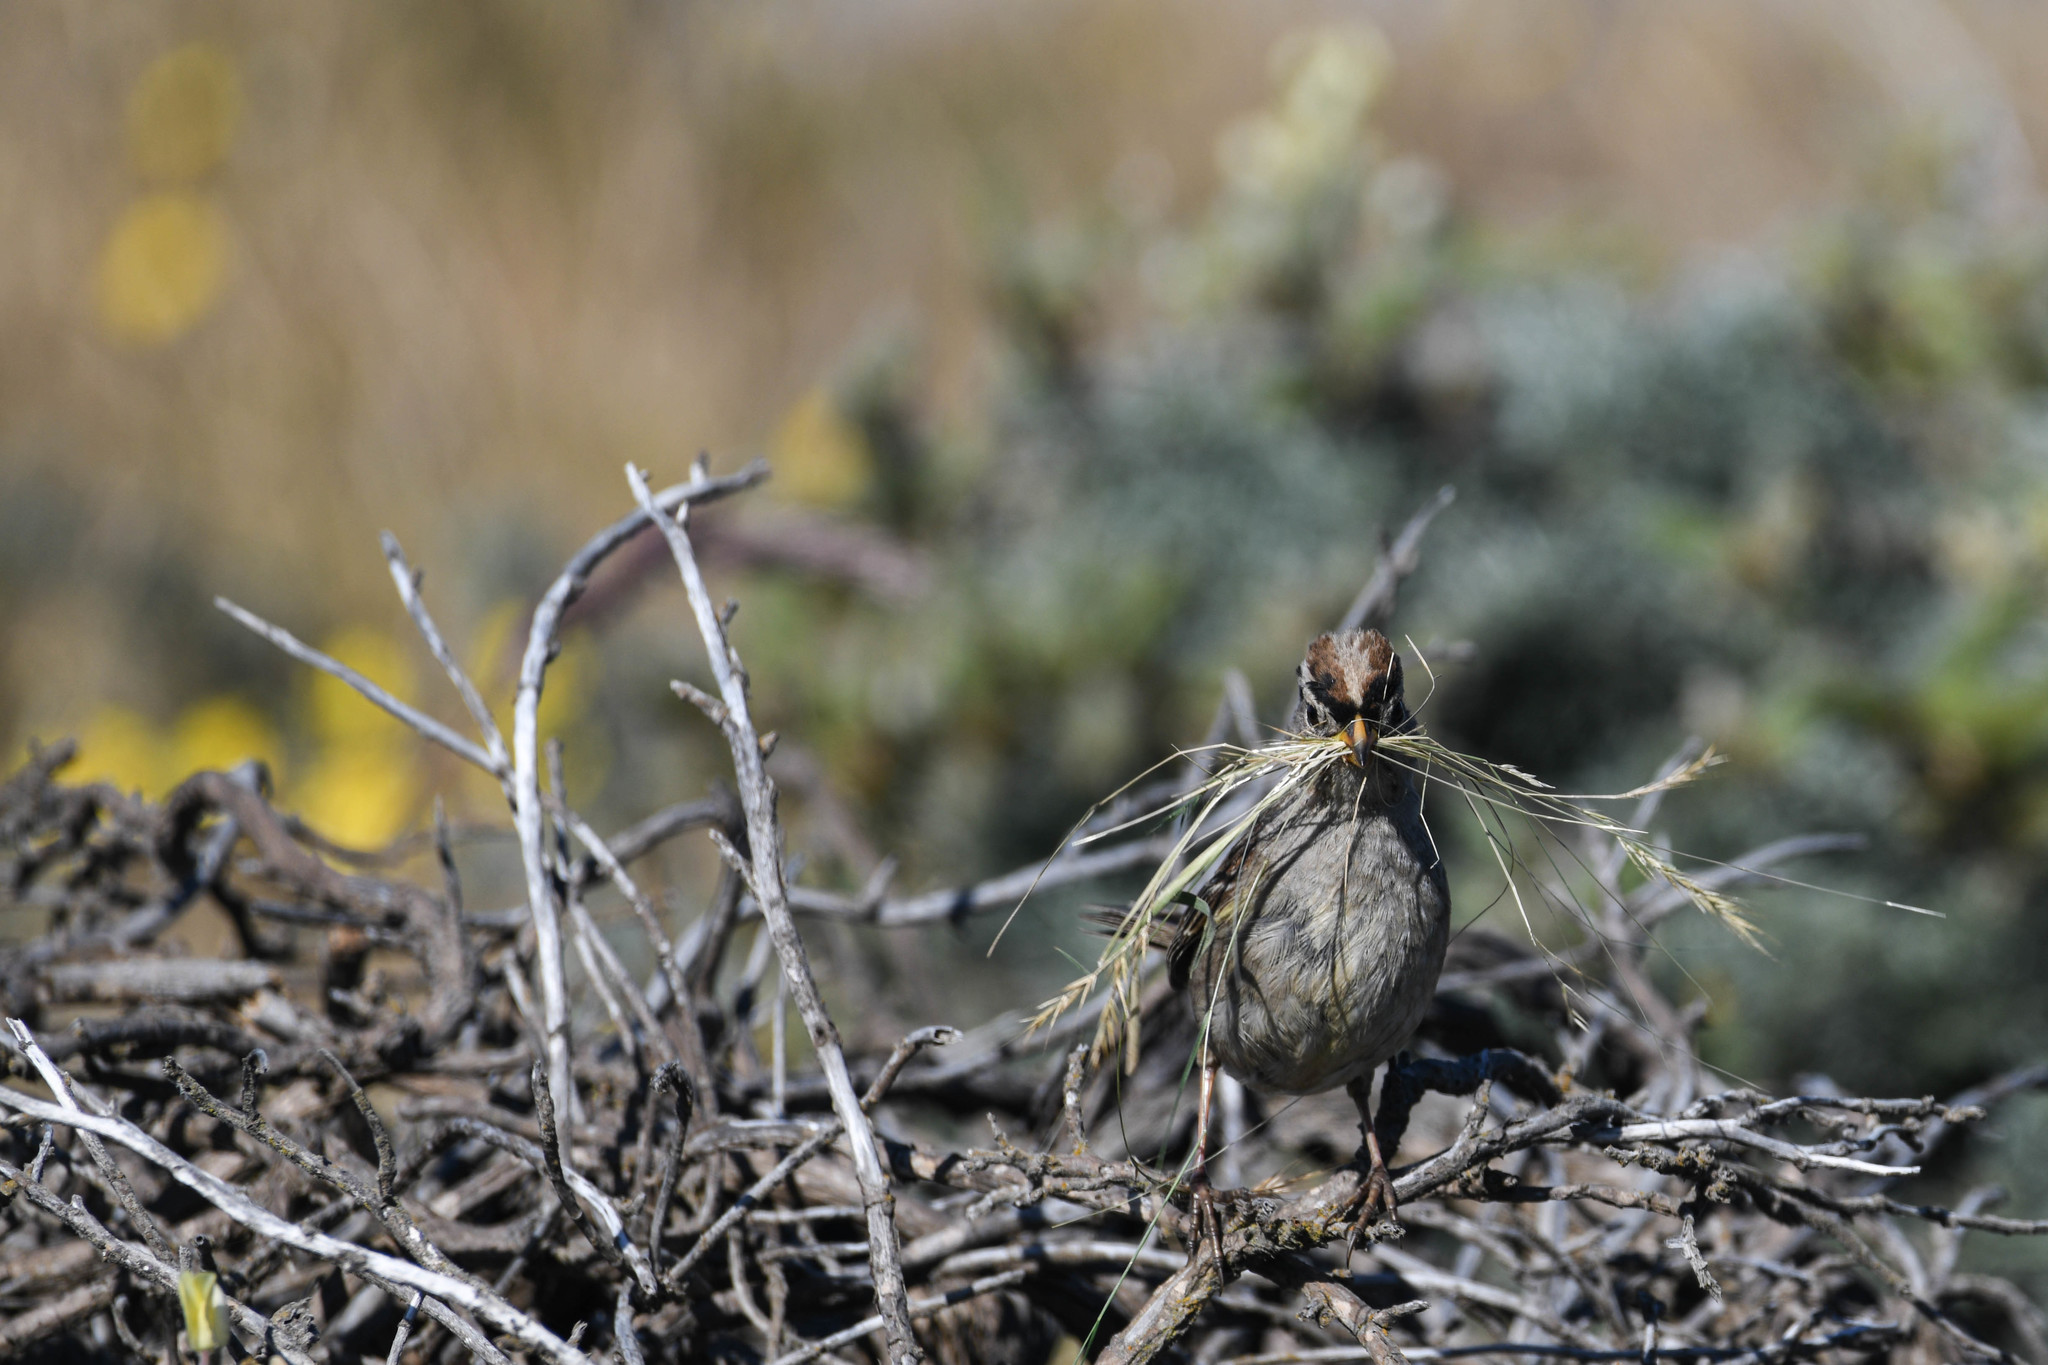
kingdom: Animalia
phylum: Chordata
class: Aves
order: Passeriformes
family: Passerellidae
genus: Zonotrichia
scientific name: Zonotrichia leucophrys
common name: White-crowned sparrow
